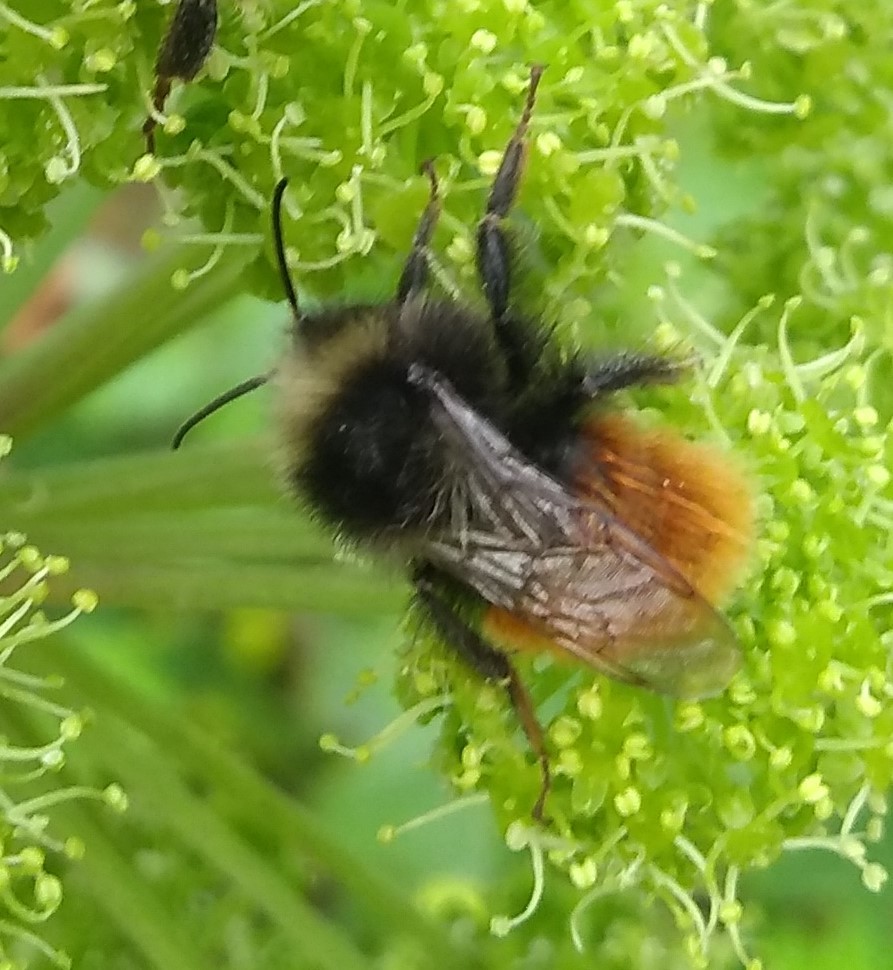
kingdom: Animalia
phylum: Arthropoda
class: Insecta
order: Hymenoptera
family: Apidae
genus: Bombus
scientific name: Bombus monticola
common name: Bilberry humble-bee
